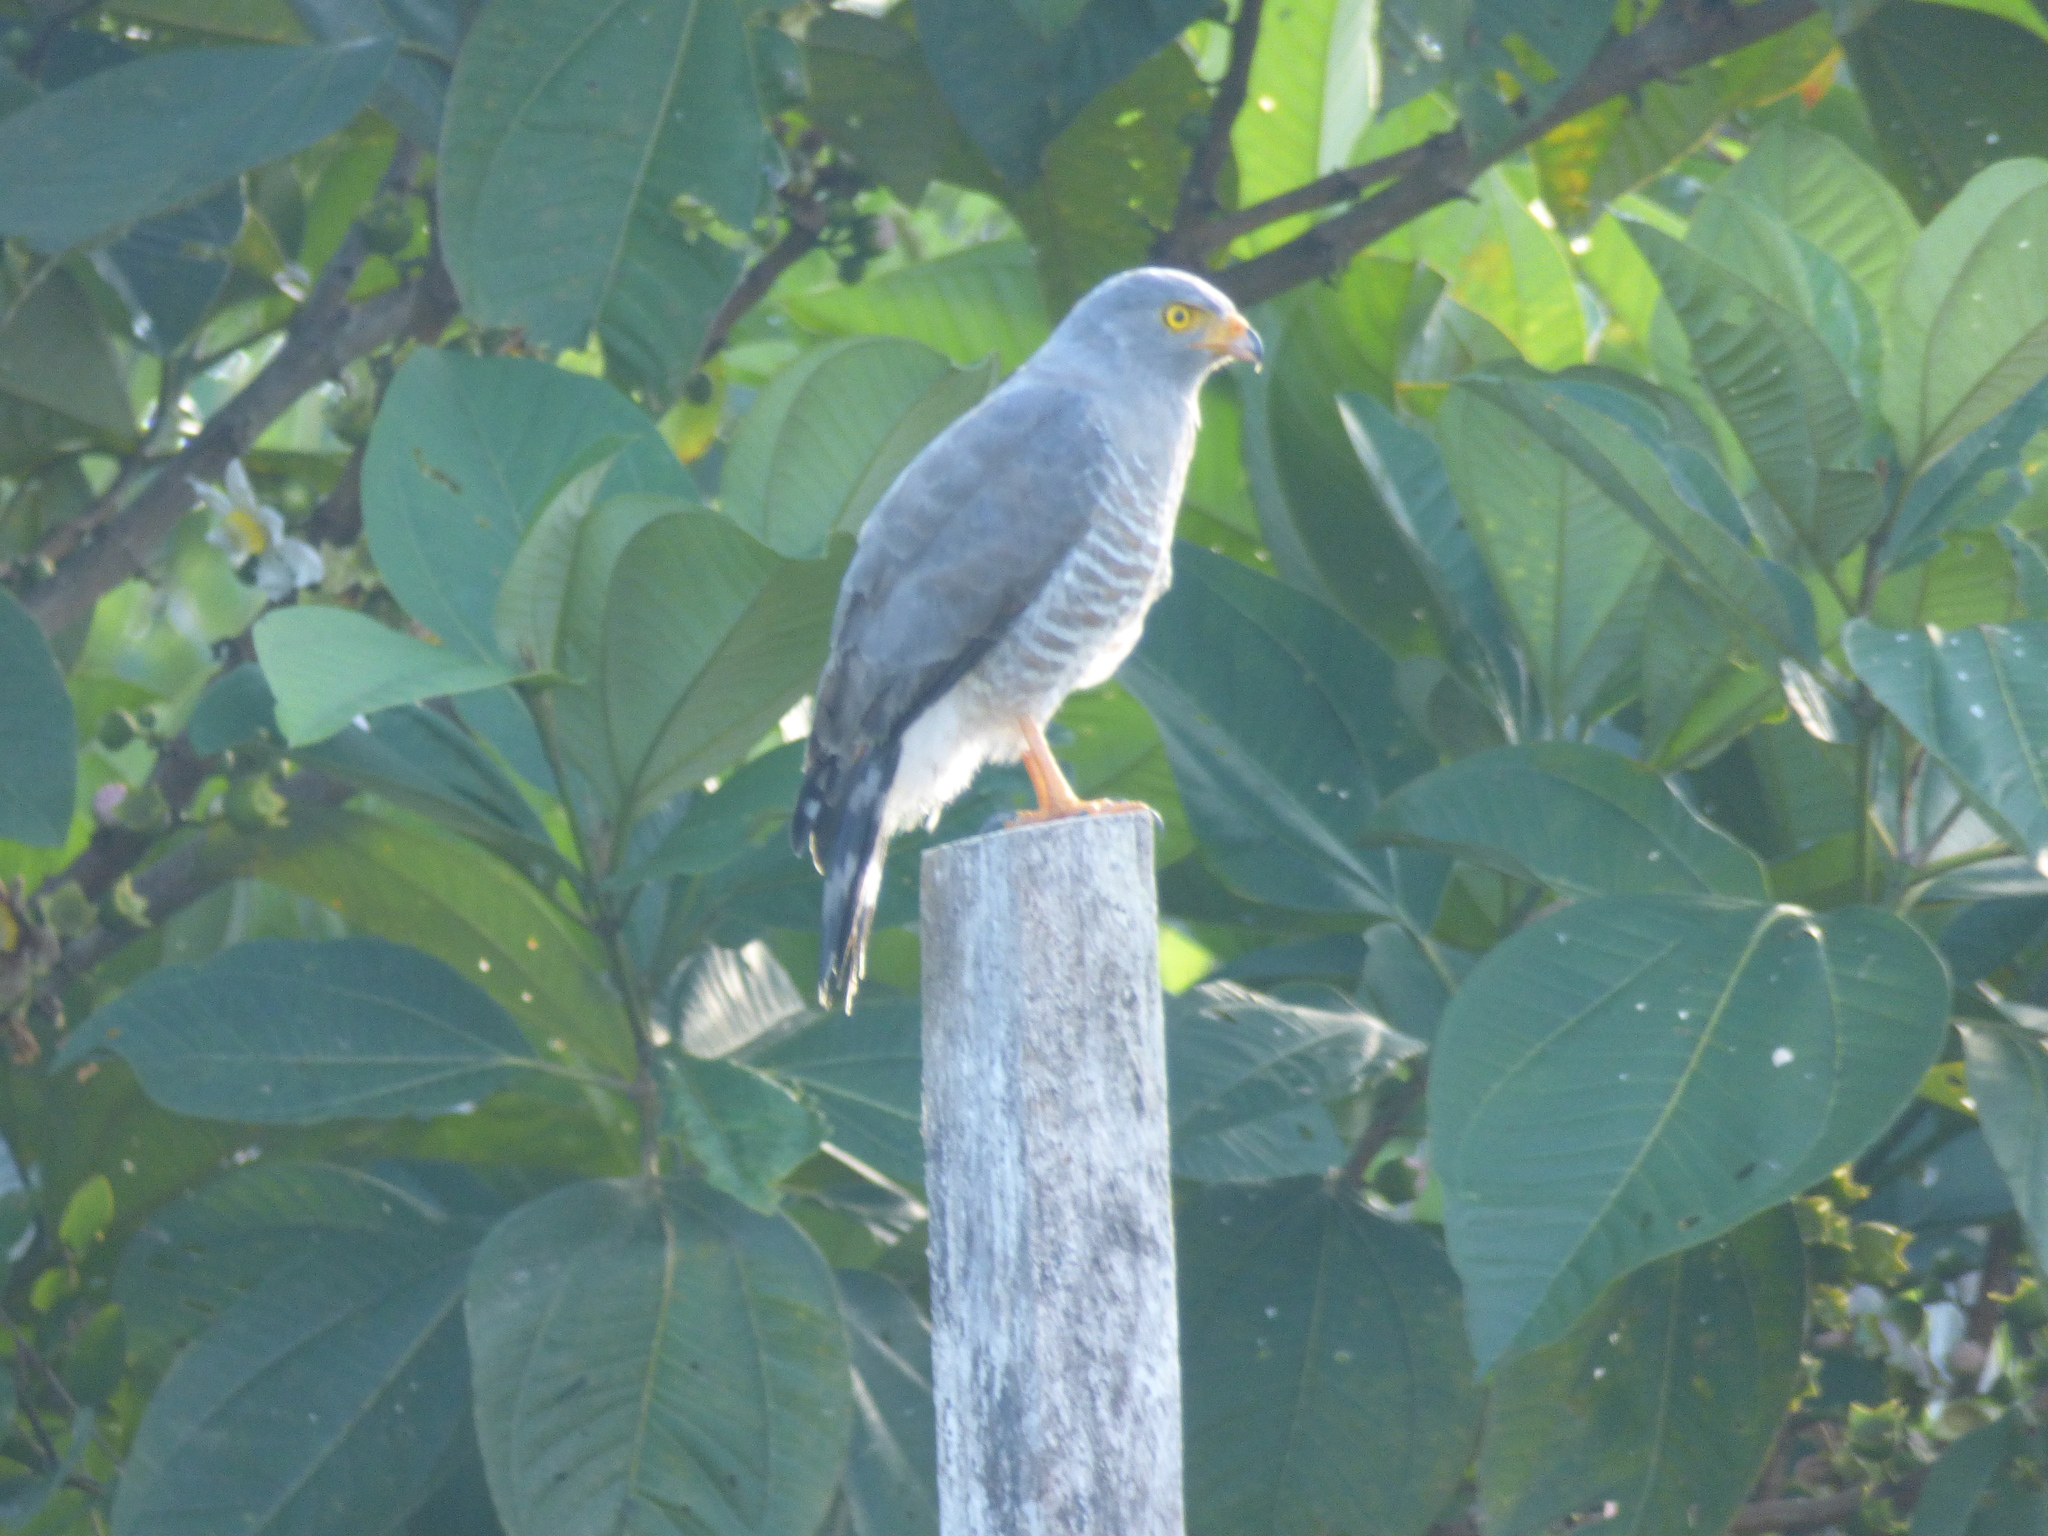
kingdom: Animalia
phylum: Chordata
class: Aves
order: Accipitriformes
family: Accipitridae
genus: Rupornis
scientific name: Rupornis magnirostris
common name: Roadside hawk
